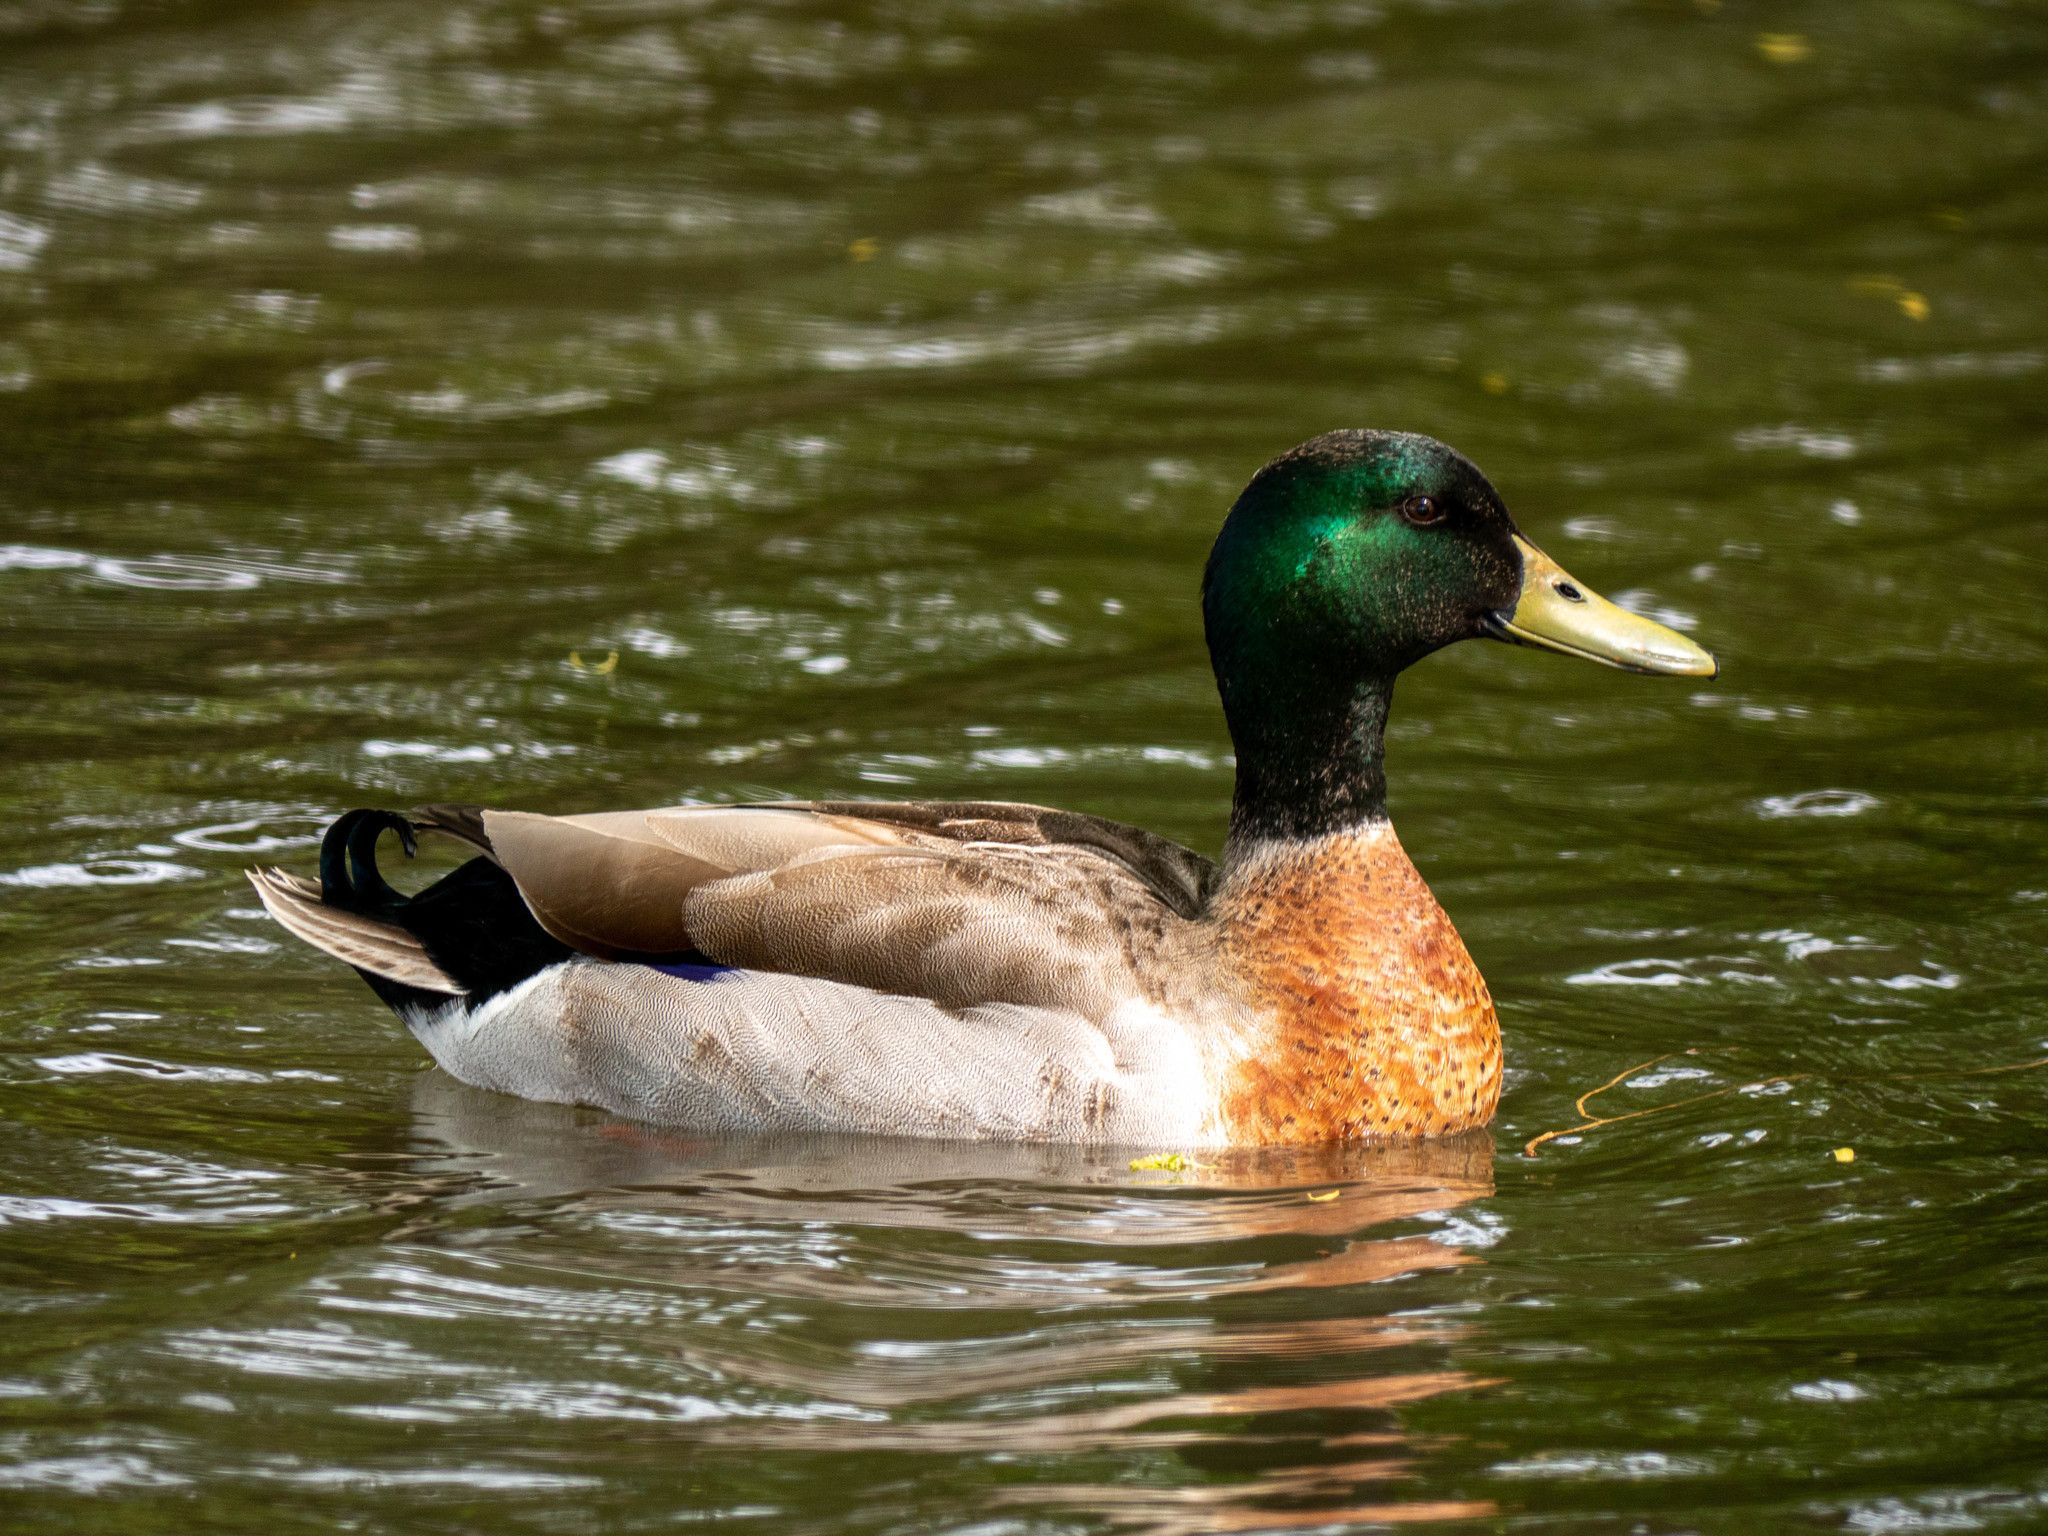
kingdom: Animalia
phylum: Chordata
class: Aves
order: Anseriformes
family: Anatidae
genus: Anas
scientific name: Anas platyrhynchos
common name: Mallard
